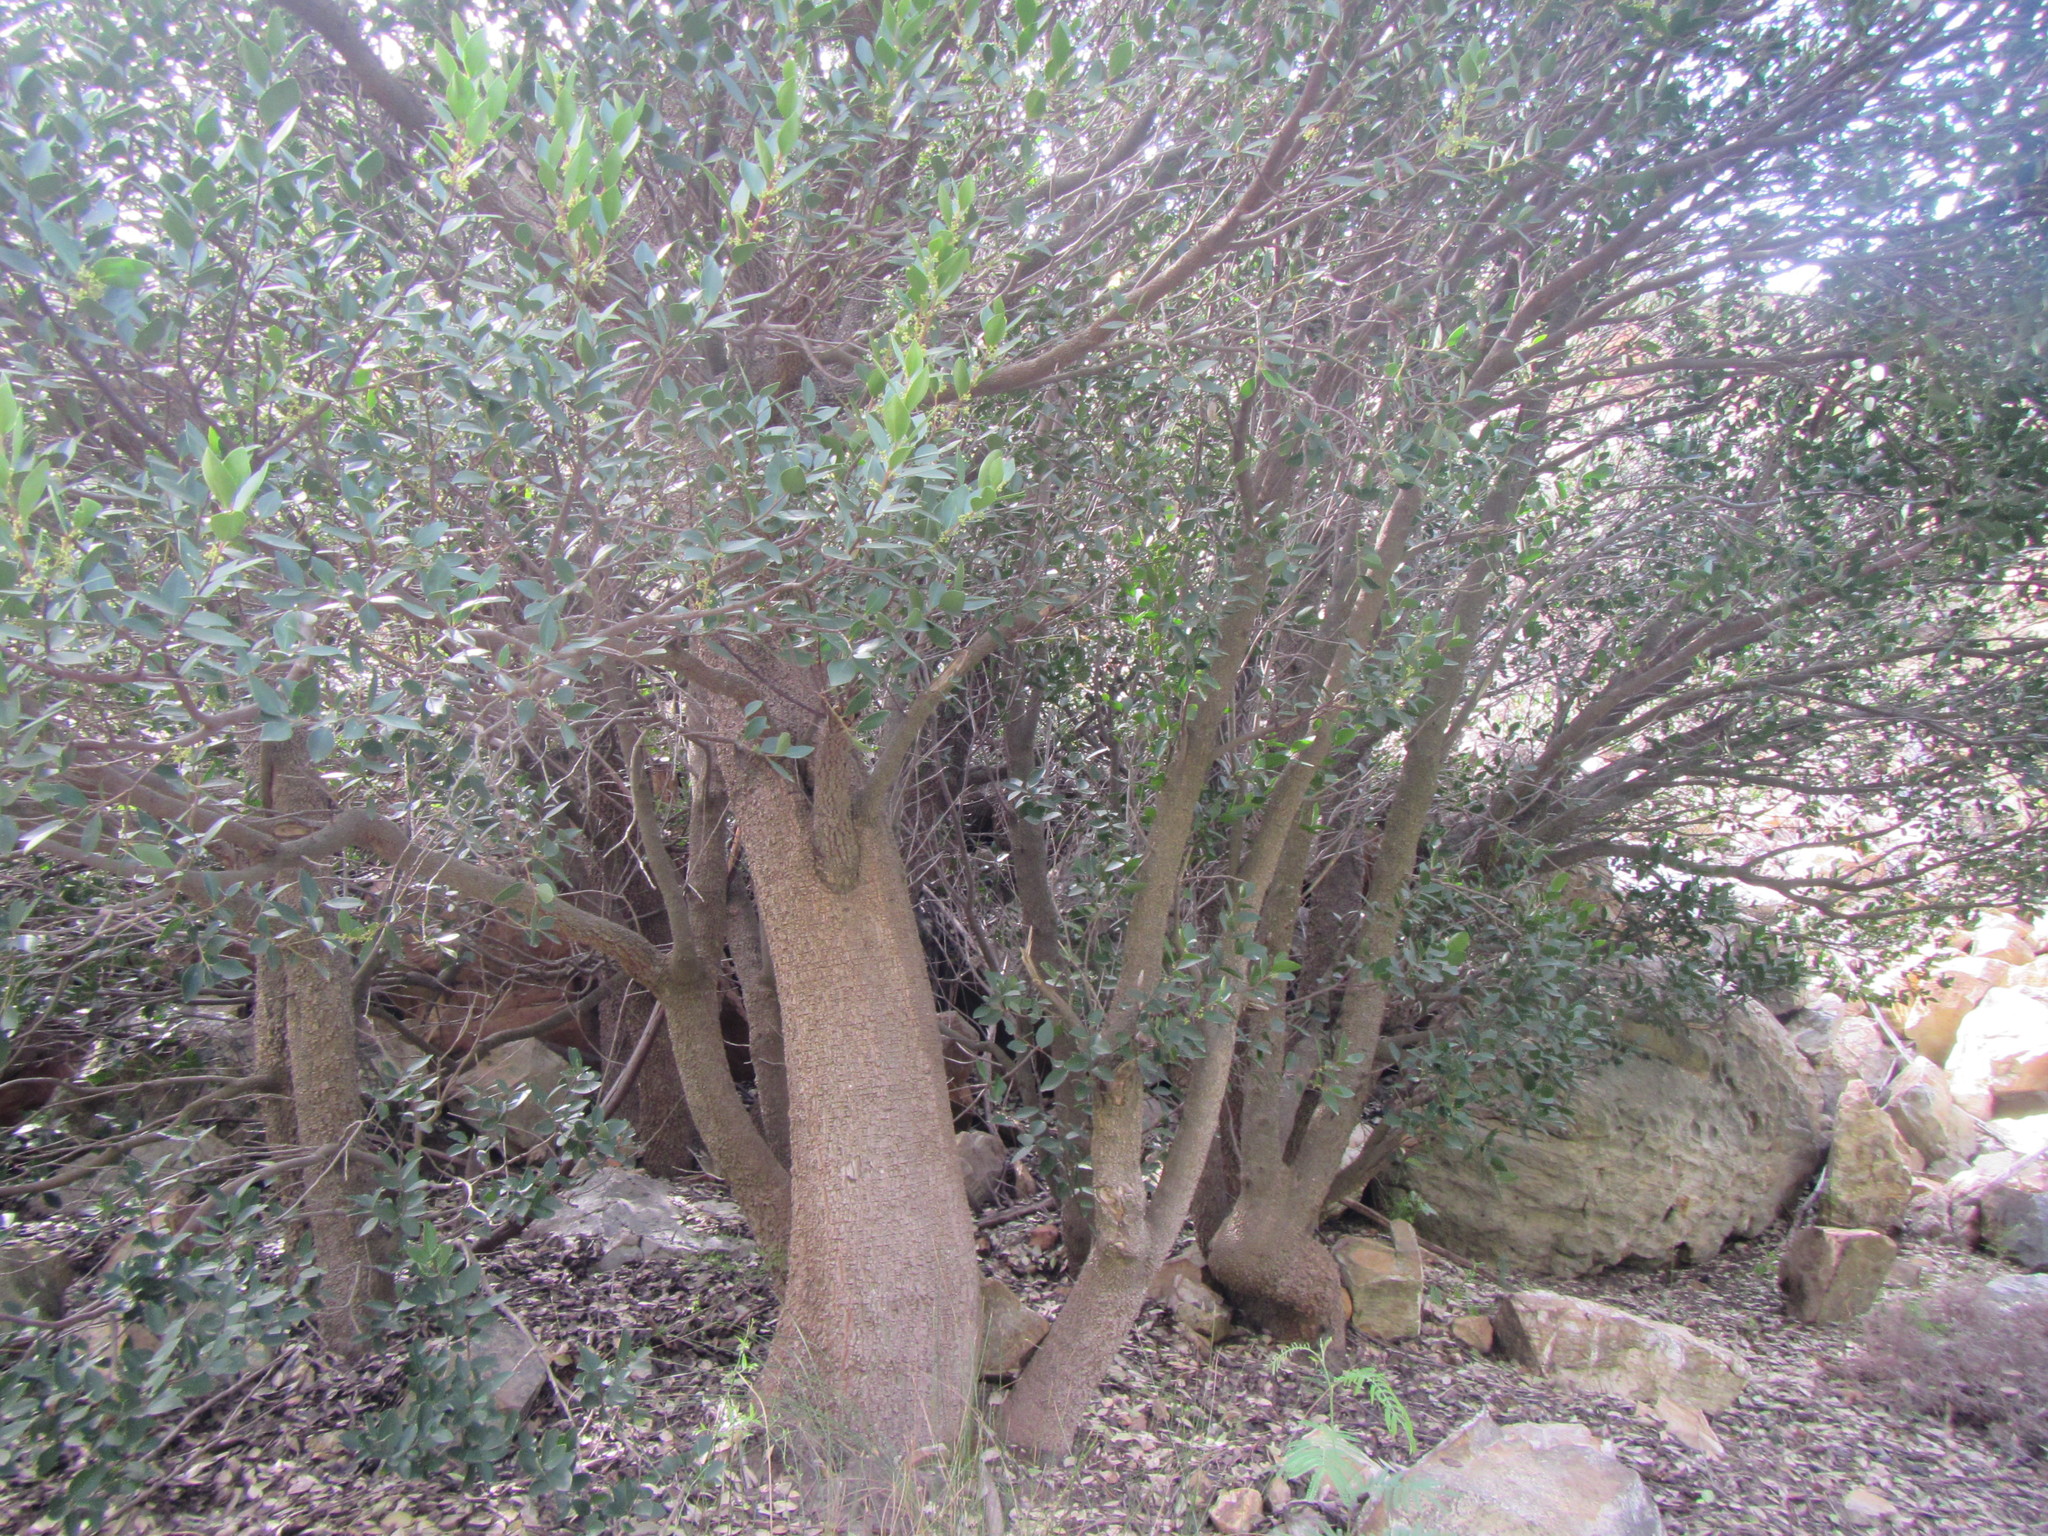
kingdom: Plantae
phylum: Tracheophyta
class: Magnoliopsida
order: Celastrales
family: Celastraceae
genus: Gymnosporia
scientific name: Gymnosporia laurina
